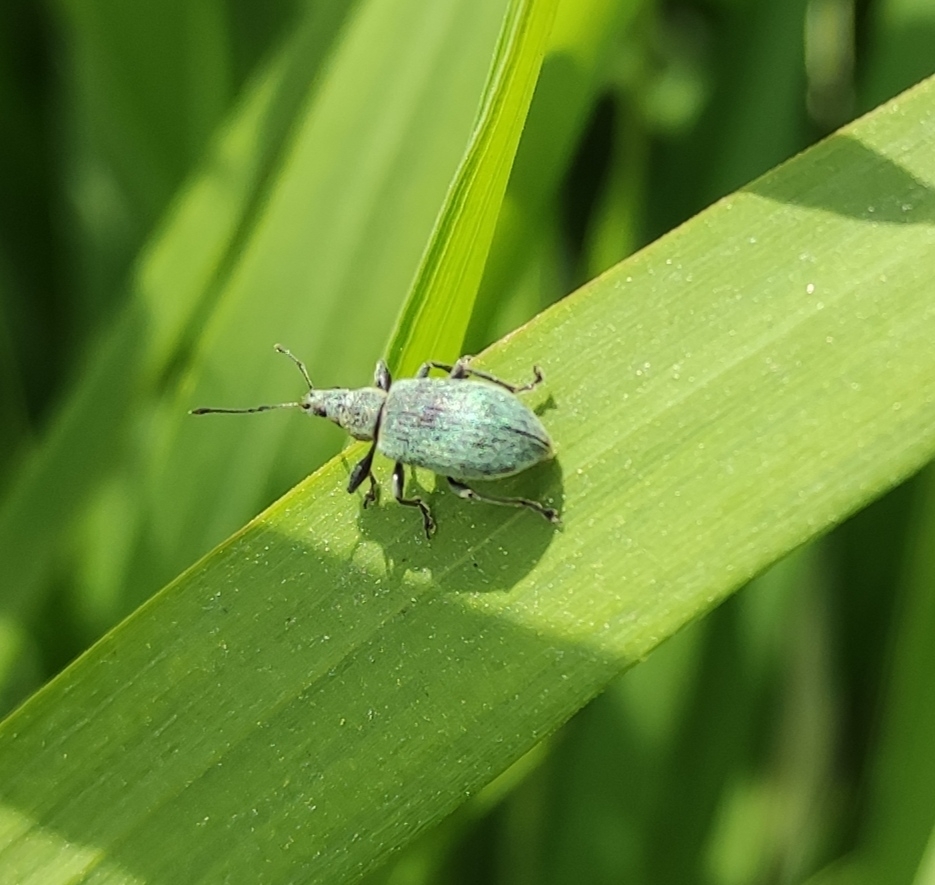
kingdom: Animalia
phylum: Arthropoda
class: Insecta
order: Coleoptera
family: Curculionidae
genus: Phyllobius
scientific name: Phyllobius pomaceus
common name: Green nettle weevil
